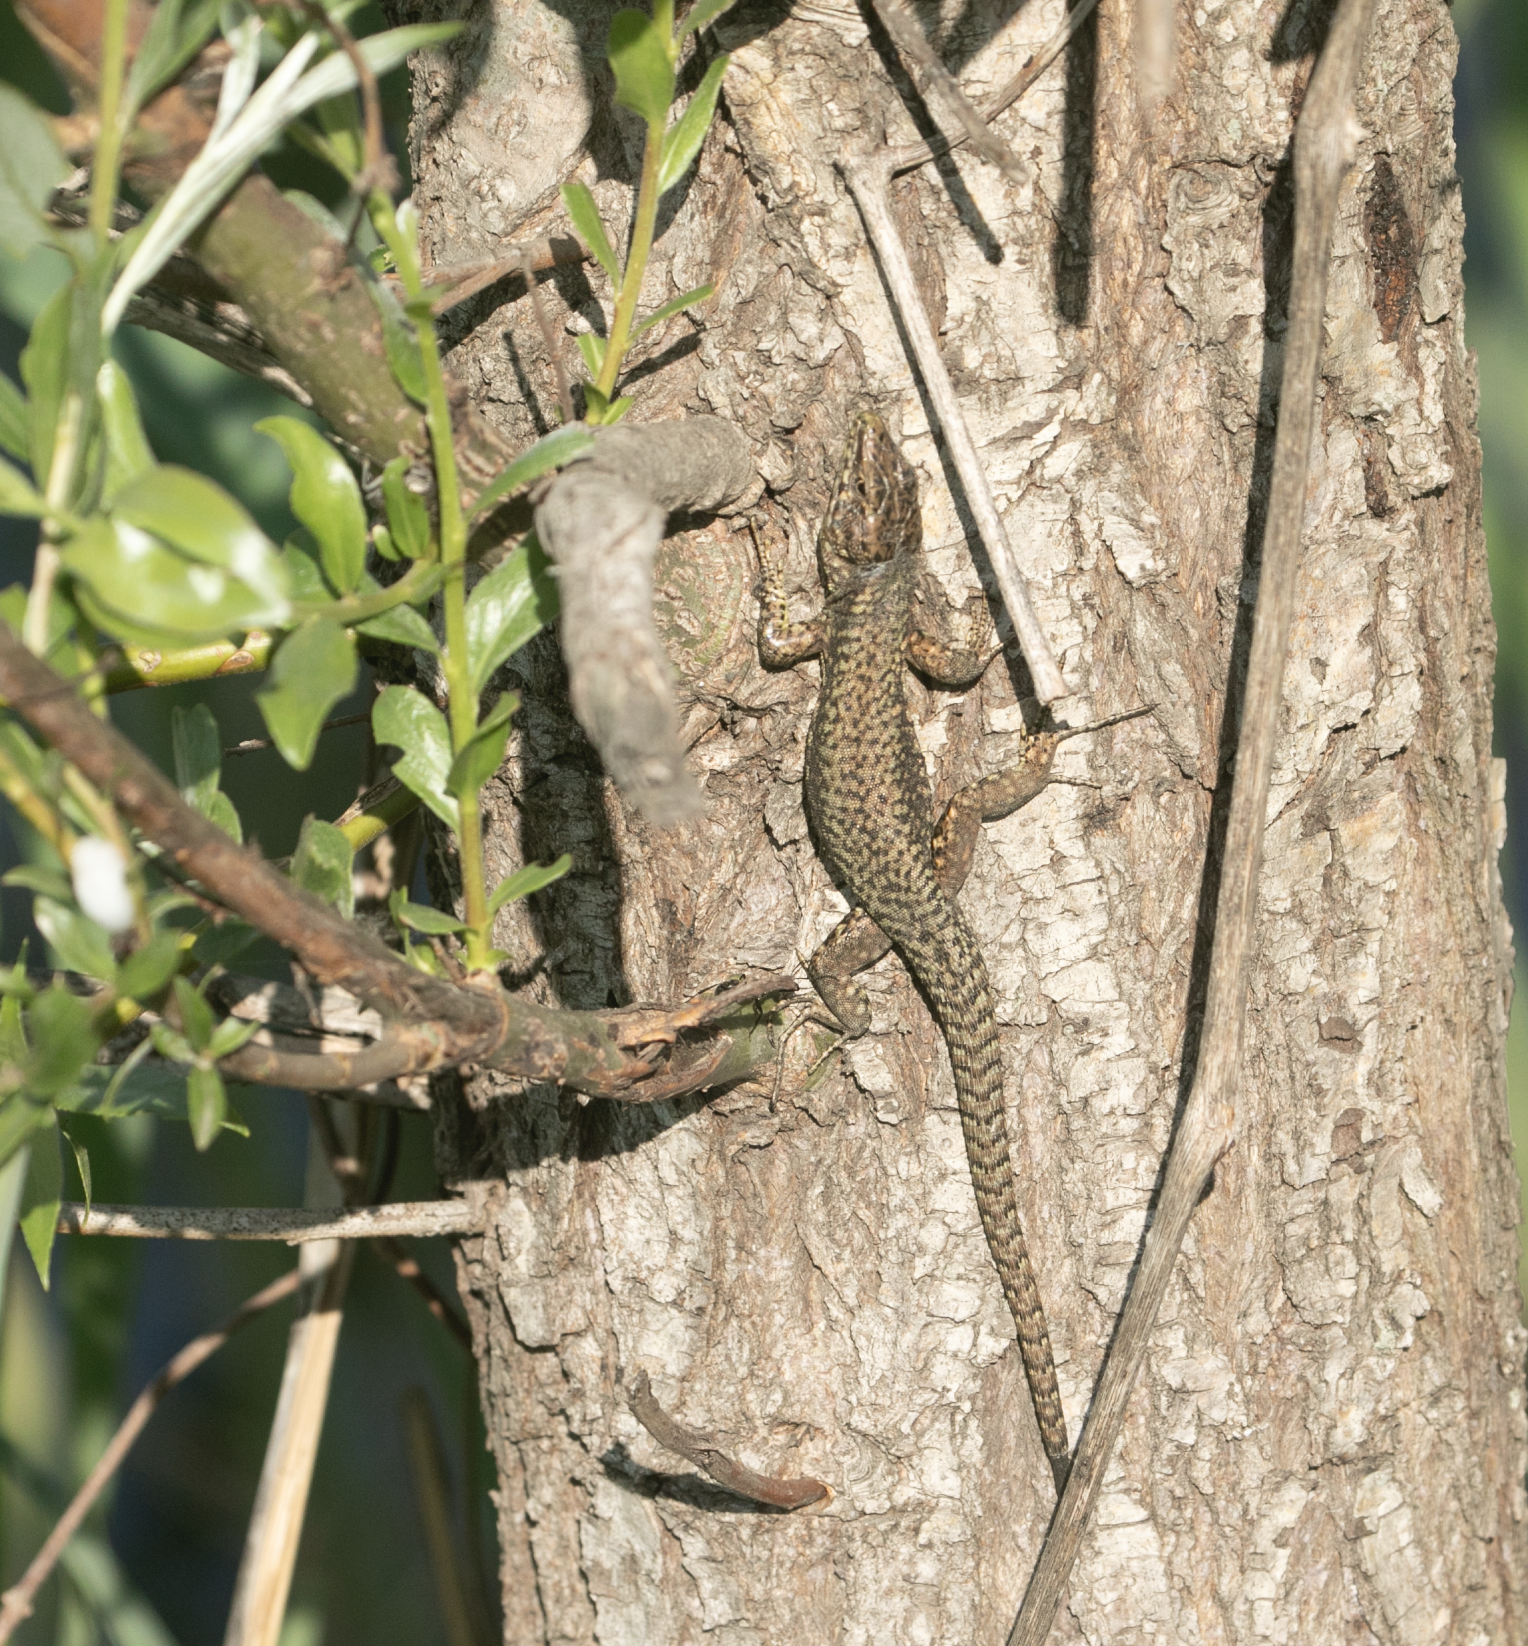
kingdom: Animalia
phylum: Chordata
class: Squamata
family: Lacertidae
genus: Podarcis
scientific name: Podarcis muralis
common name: Common wall lizard
